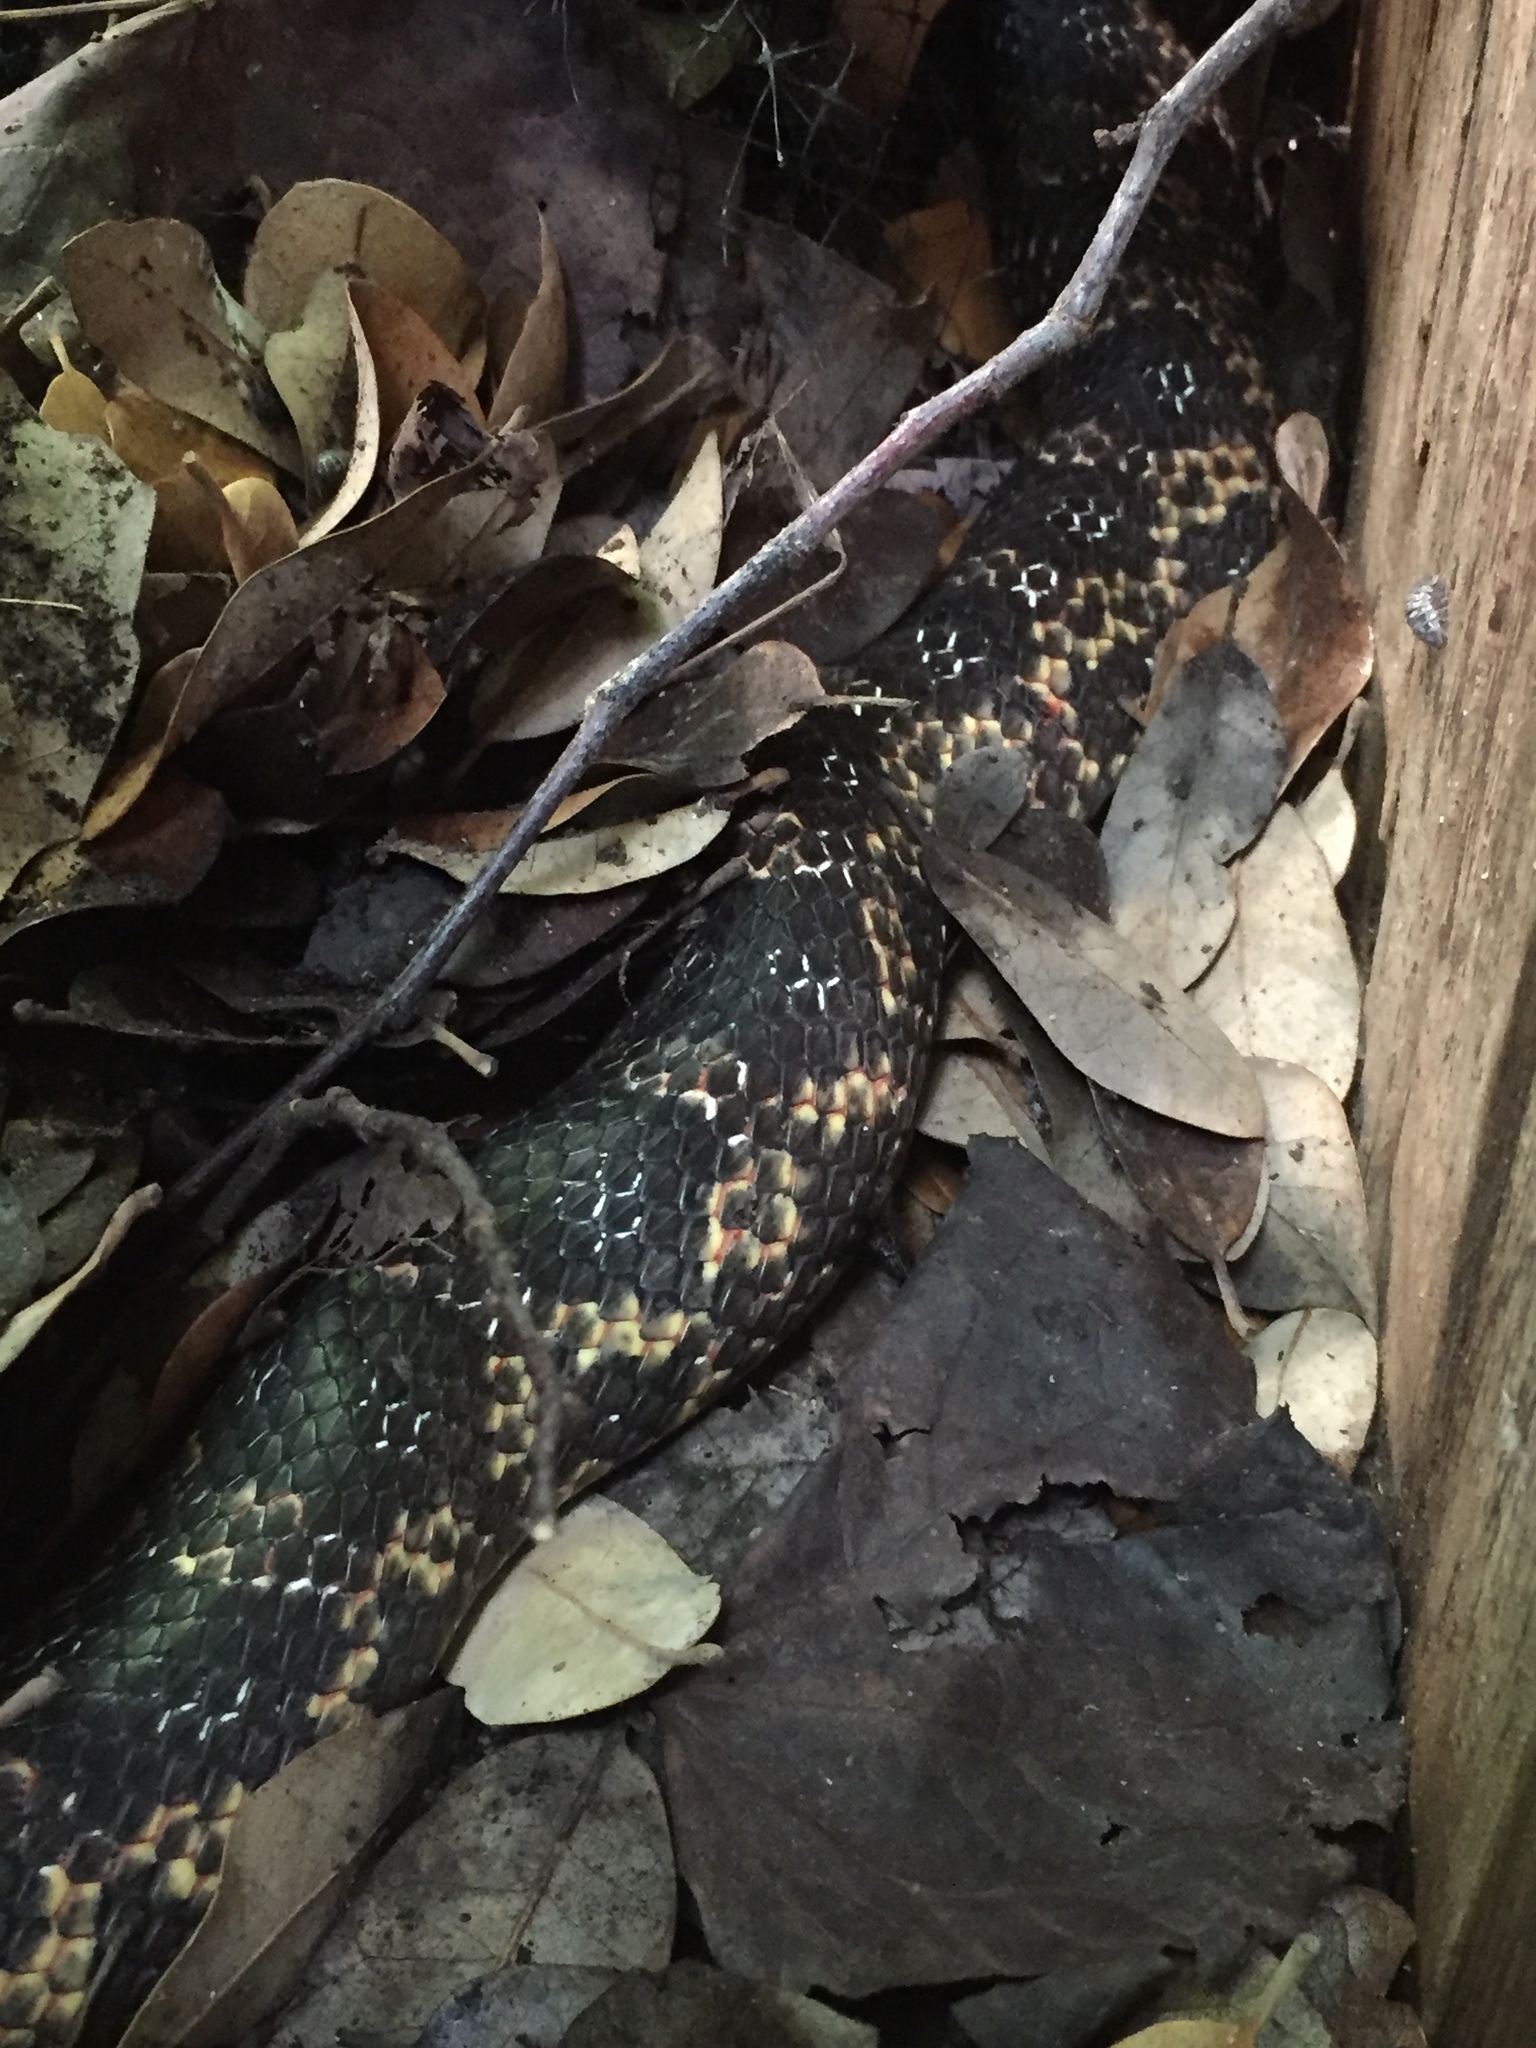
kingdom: Animalia
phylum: Chordata
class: Squamata
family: Colubridae
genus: Pantherophis
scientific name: Pantherophis obsoletus
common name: Black rat snake
